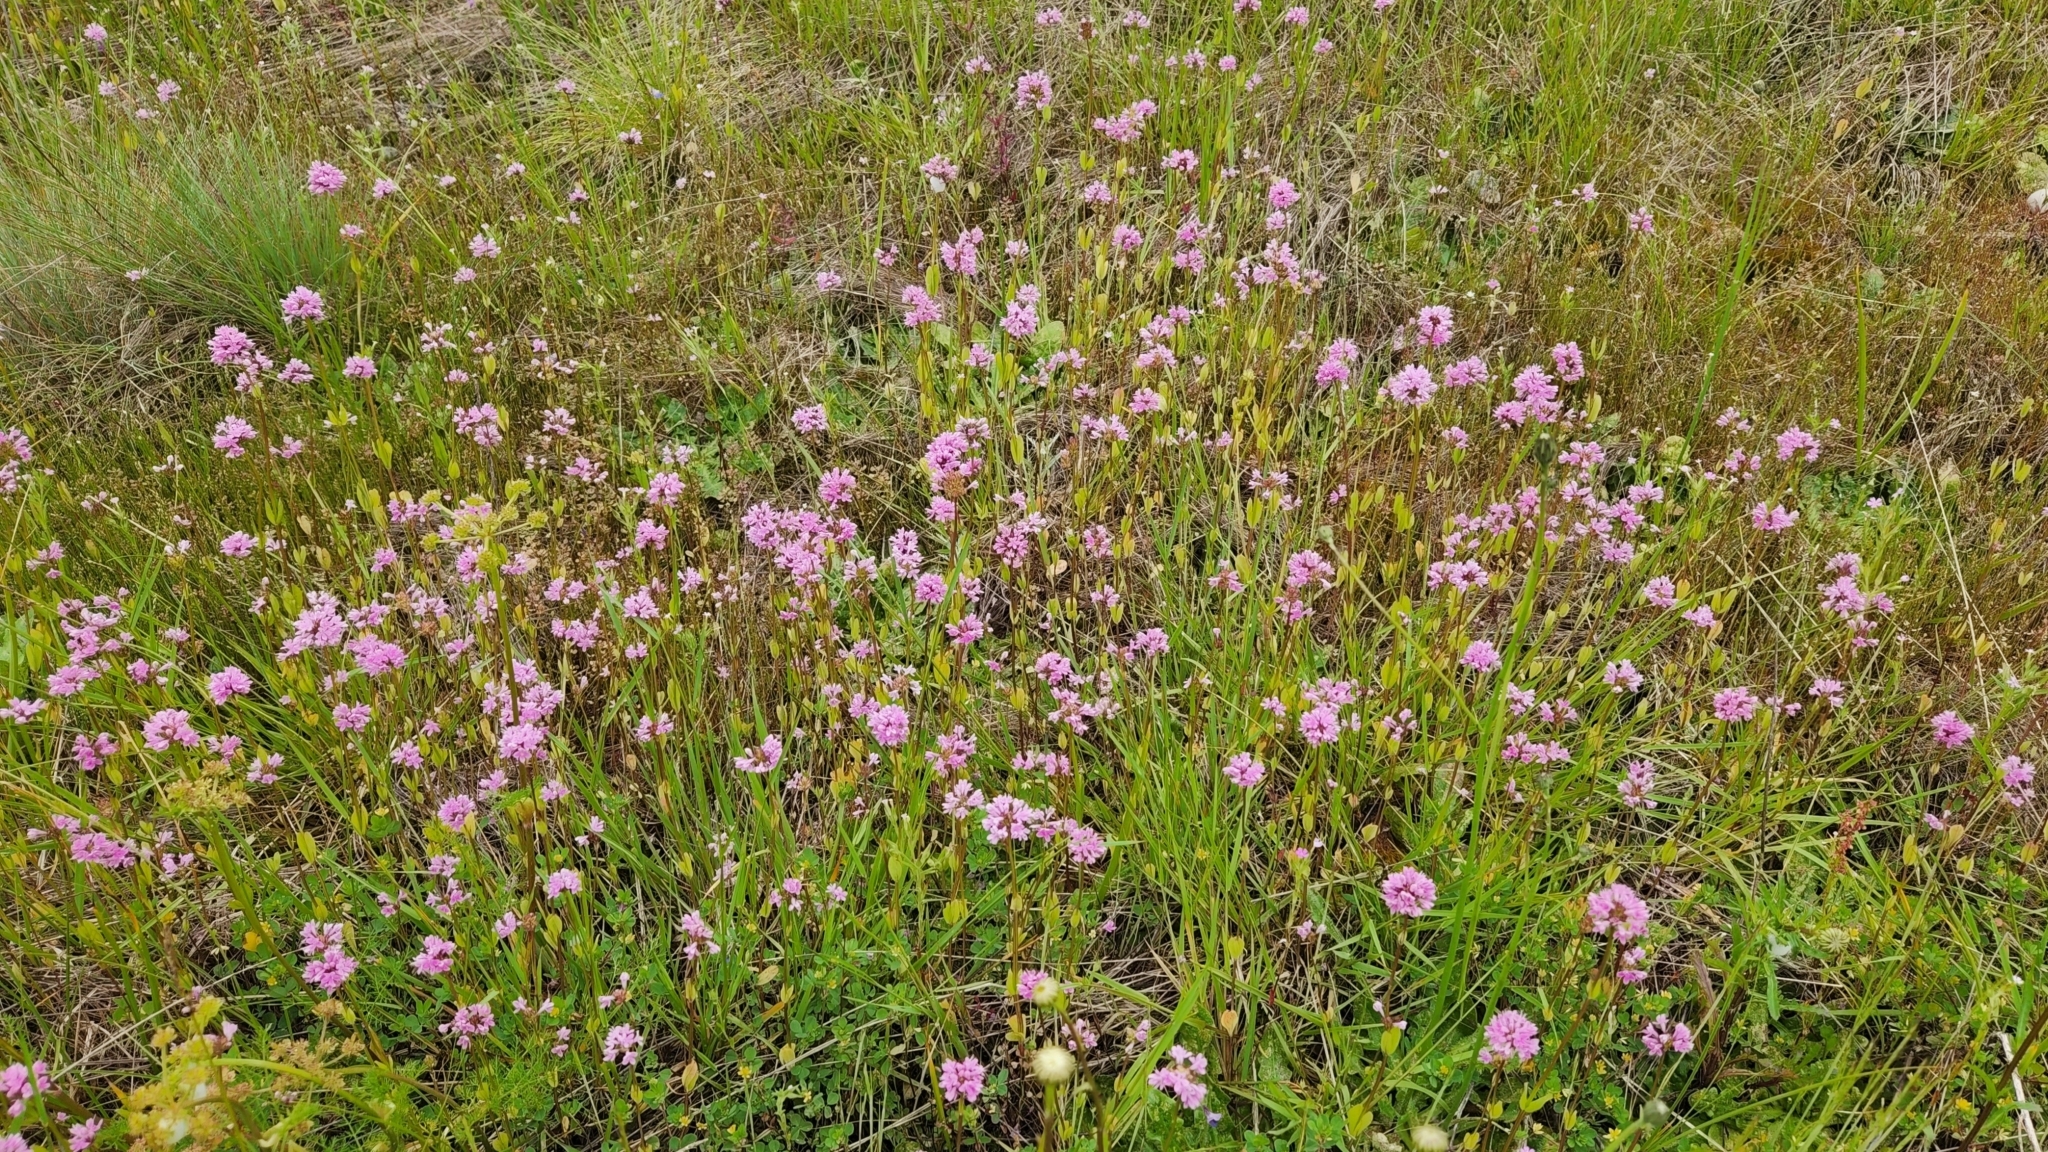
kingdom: Plantae
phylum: Tracheophyta
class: Magnoliopsida
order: Dipsacales
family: Caprifoliaceae
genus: Plectritis
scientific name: Plectritis congesta
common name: Pink plectritis
